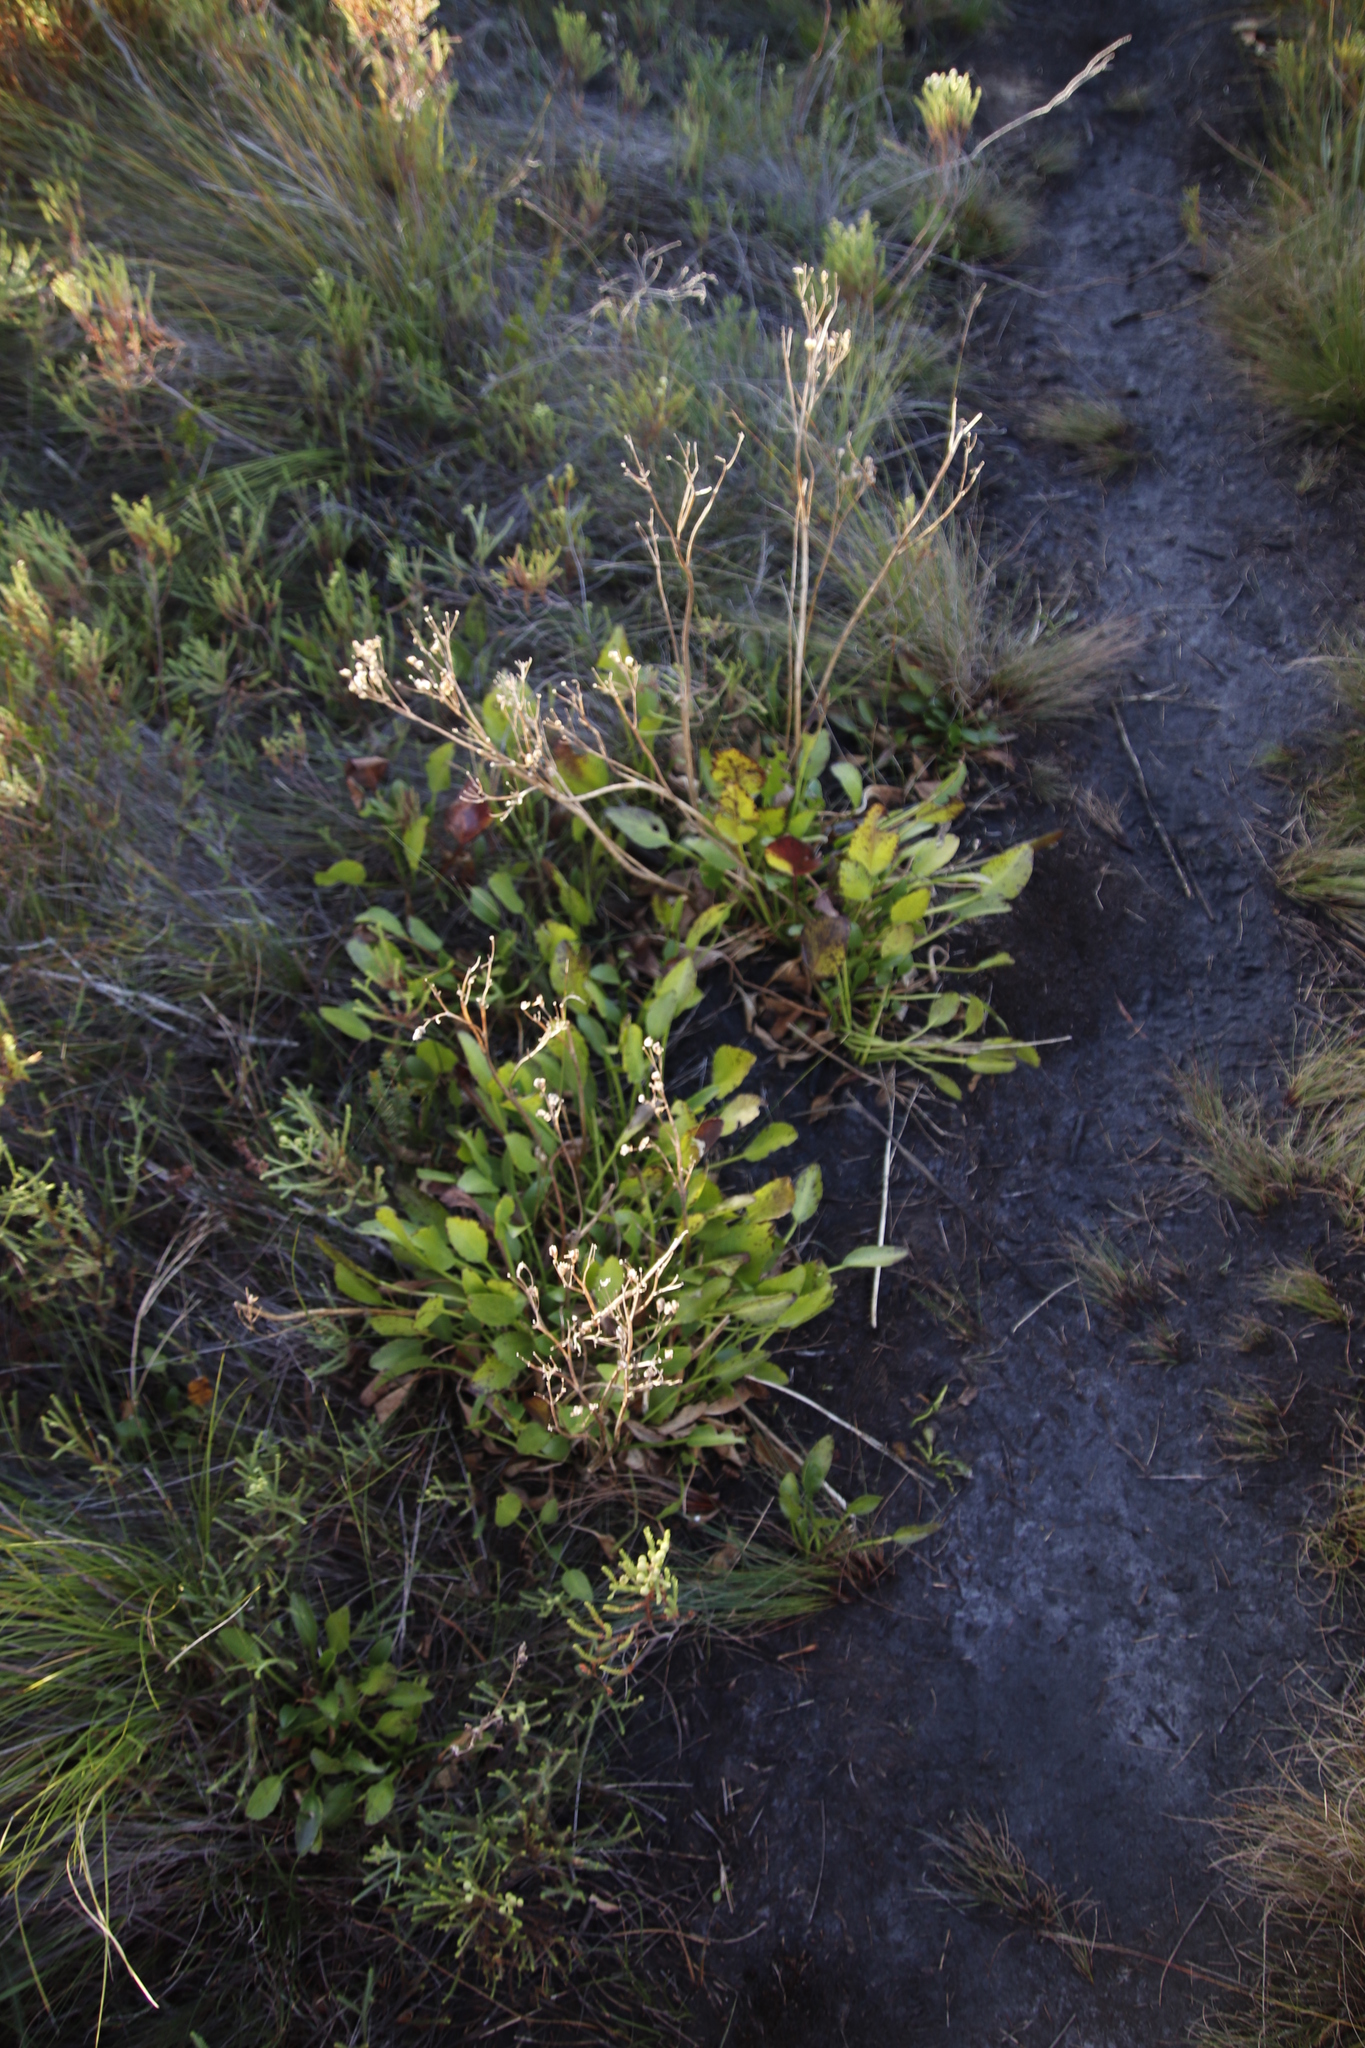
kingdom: Plantae
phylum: Tracheophyta
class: Magnoliopsida
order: Asterales
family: Menyanthaceae
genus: Villarsia
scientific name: Villarsia goldblattiana
